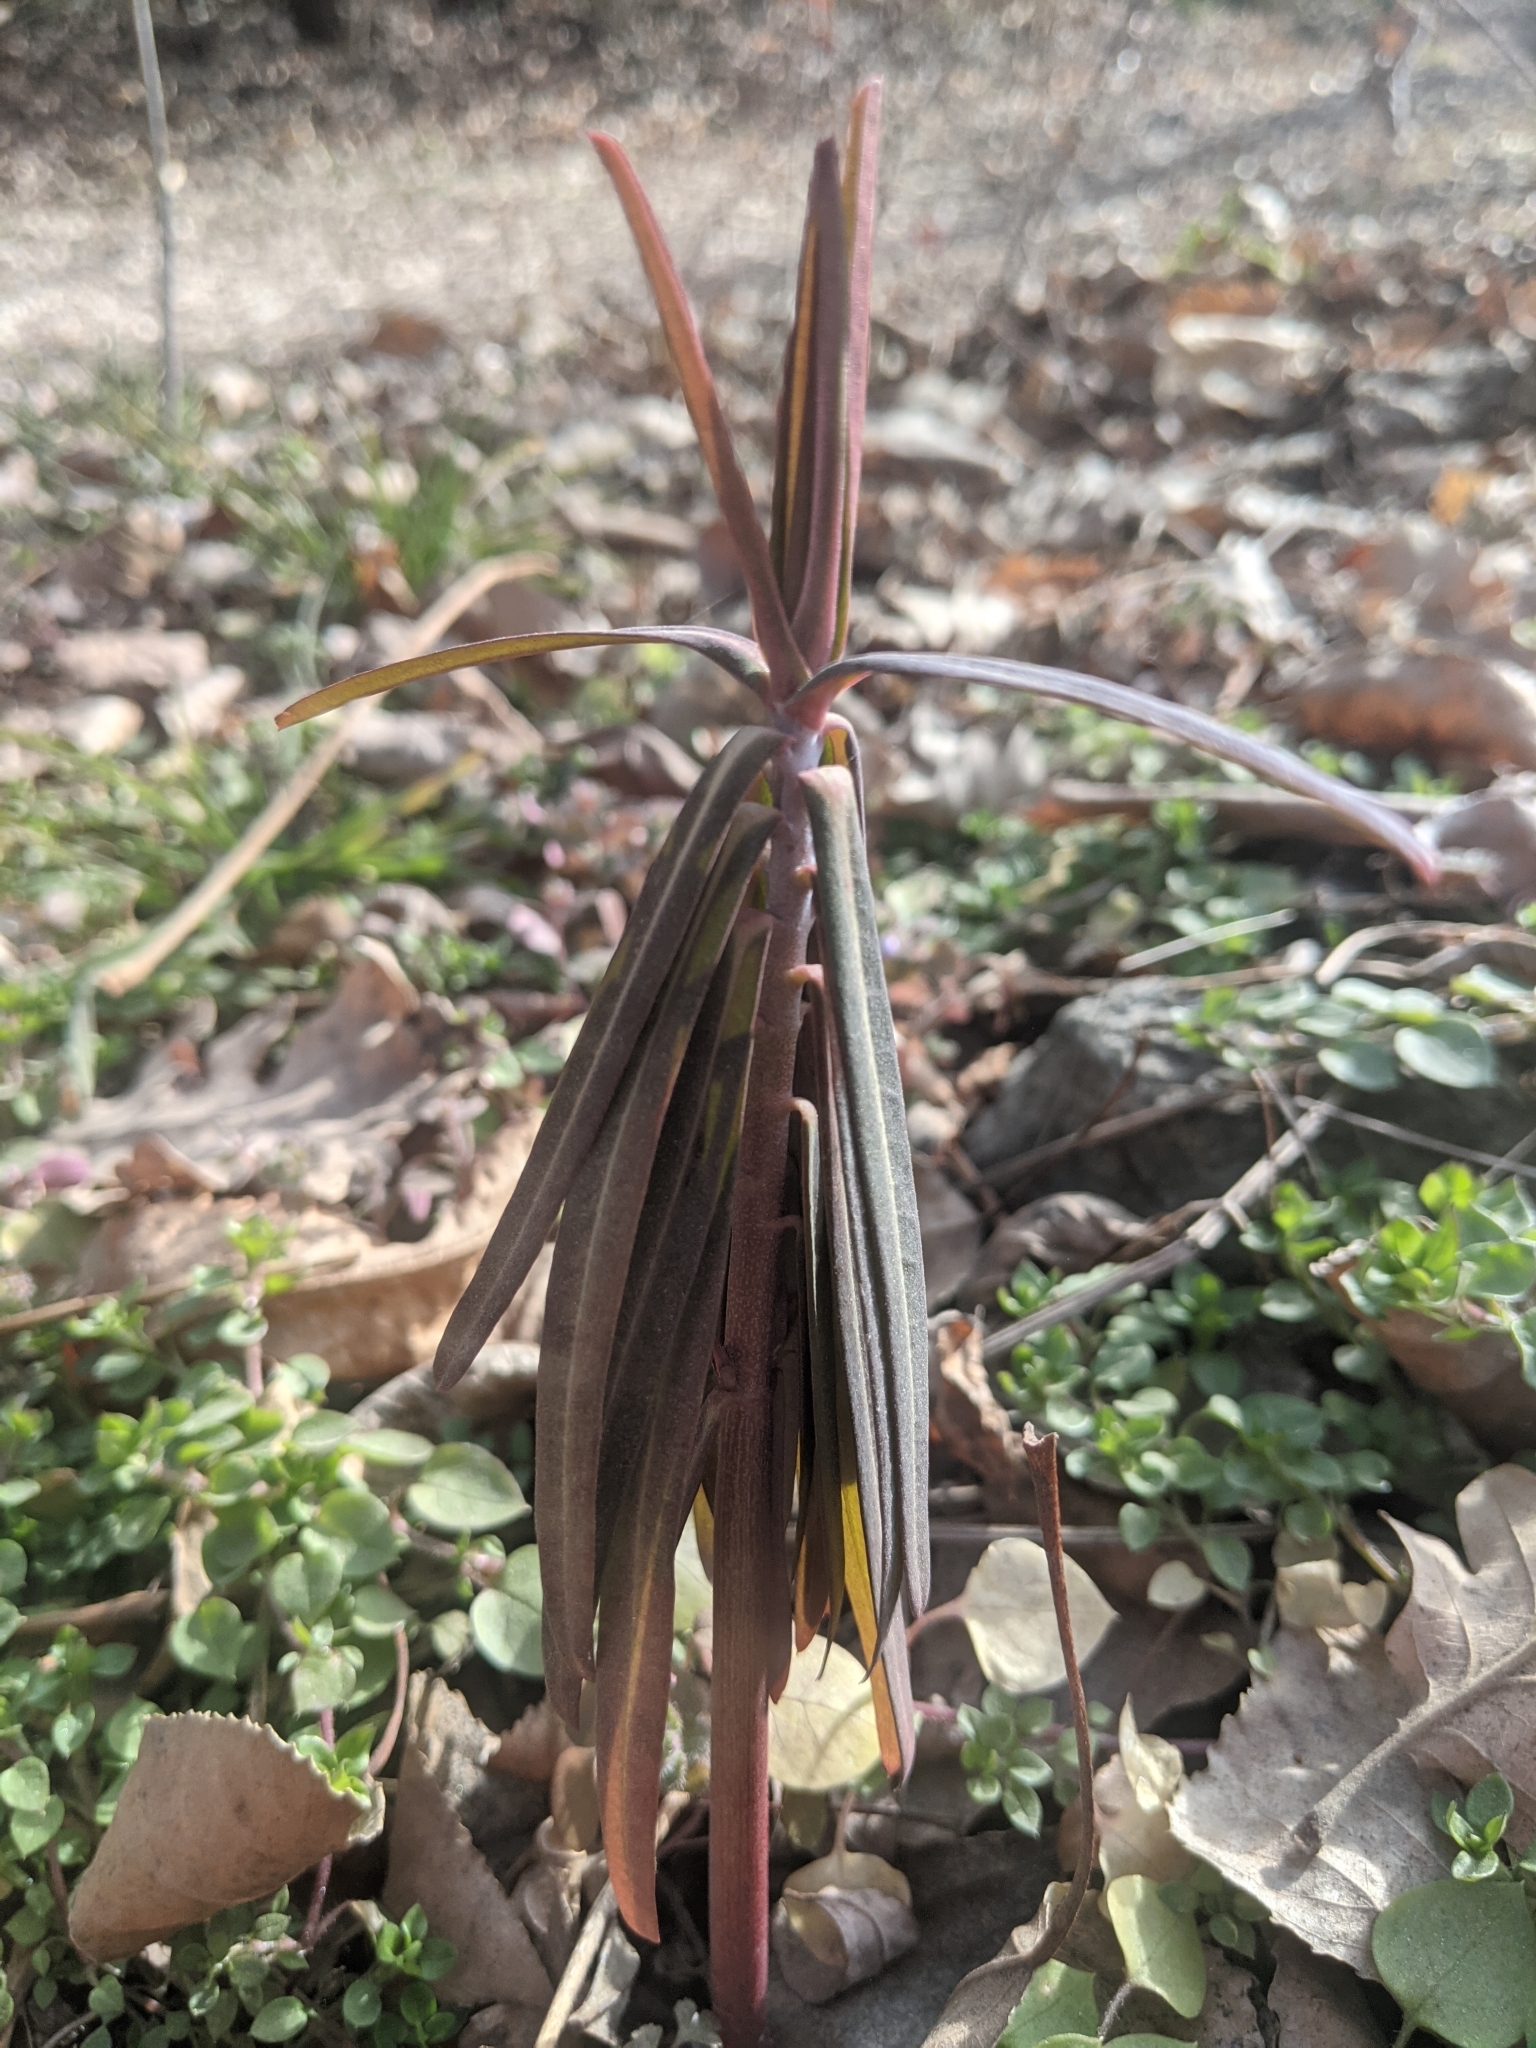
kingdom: Plantae
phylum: Tracheophyta
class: Magnoliopsida
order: Malpighiales
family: Euphorbiaceae
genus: Euphorbia
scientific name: Euphorbia lathyris
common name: Caper spurge
